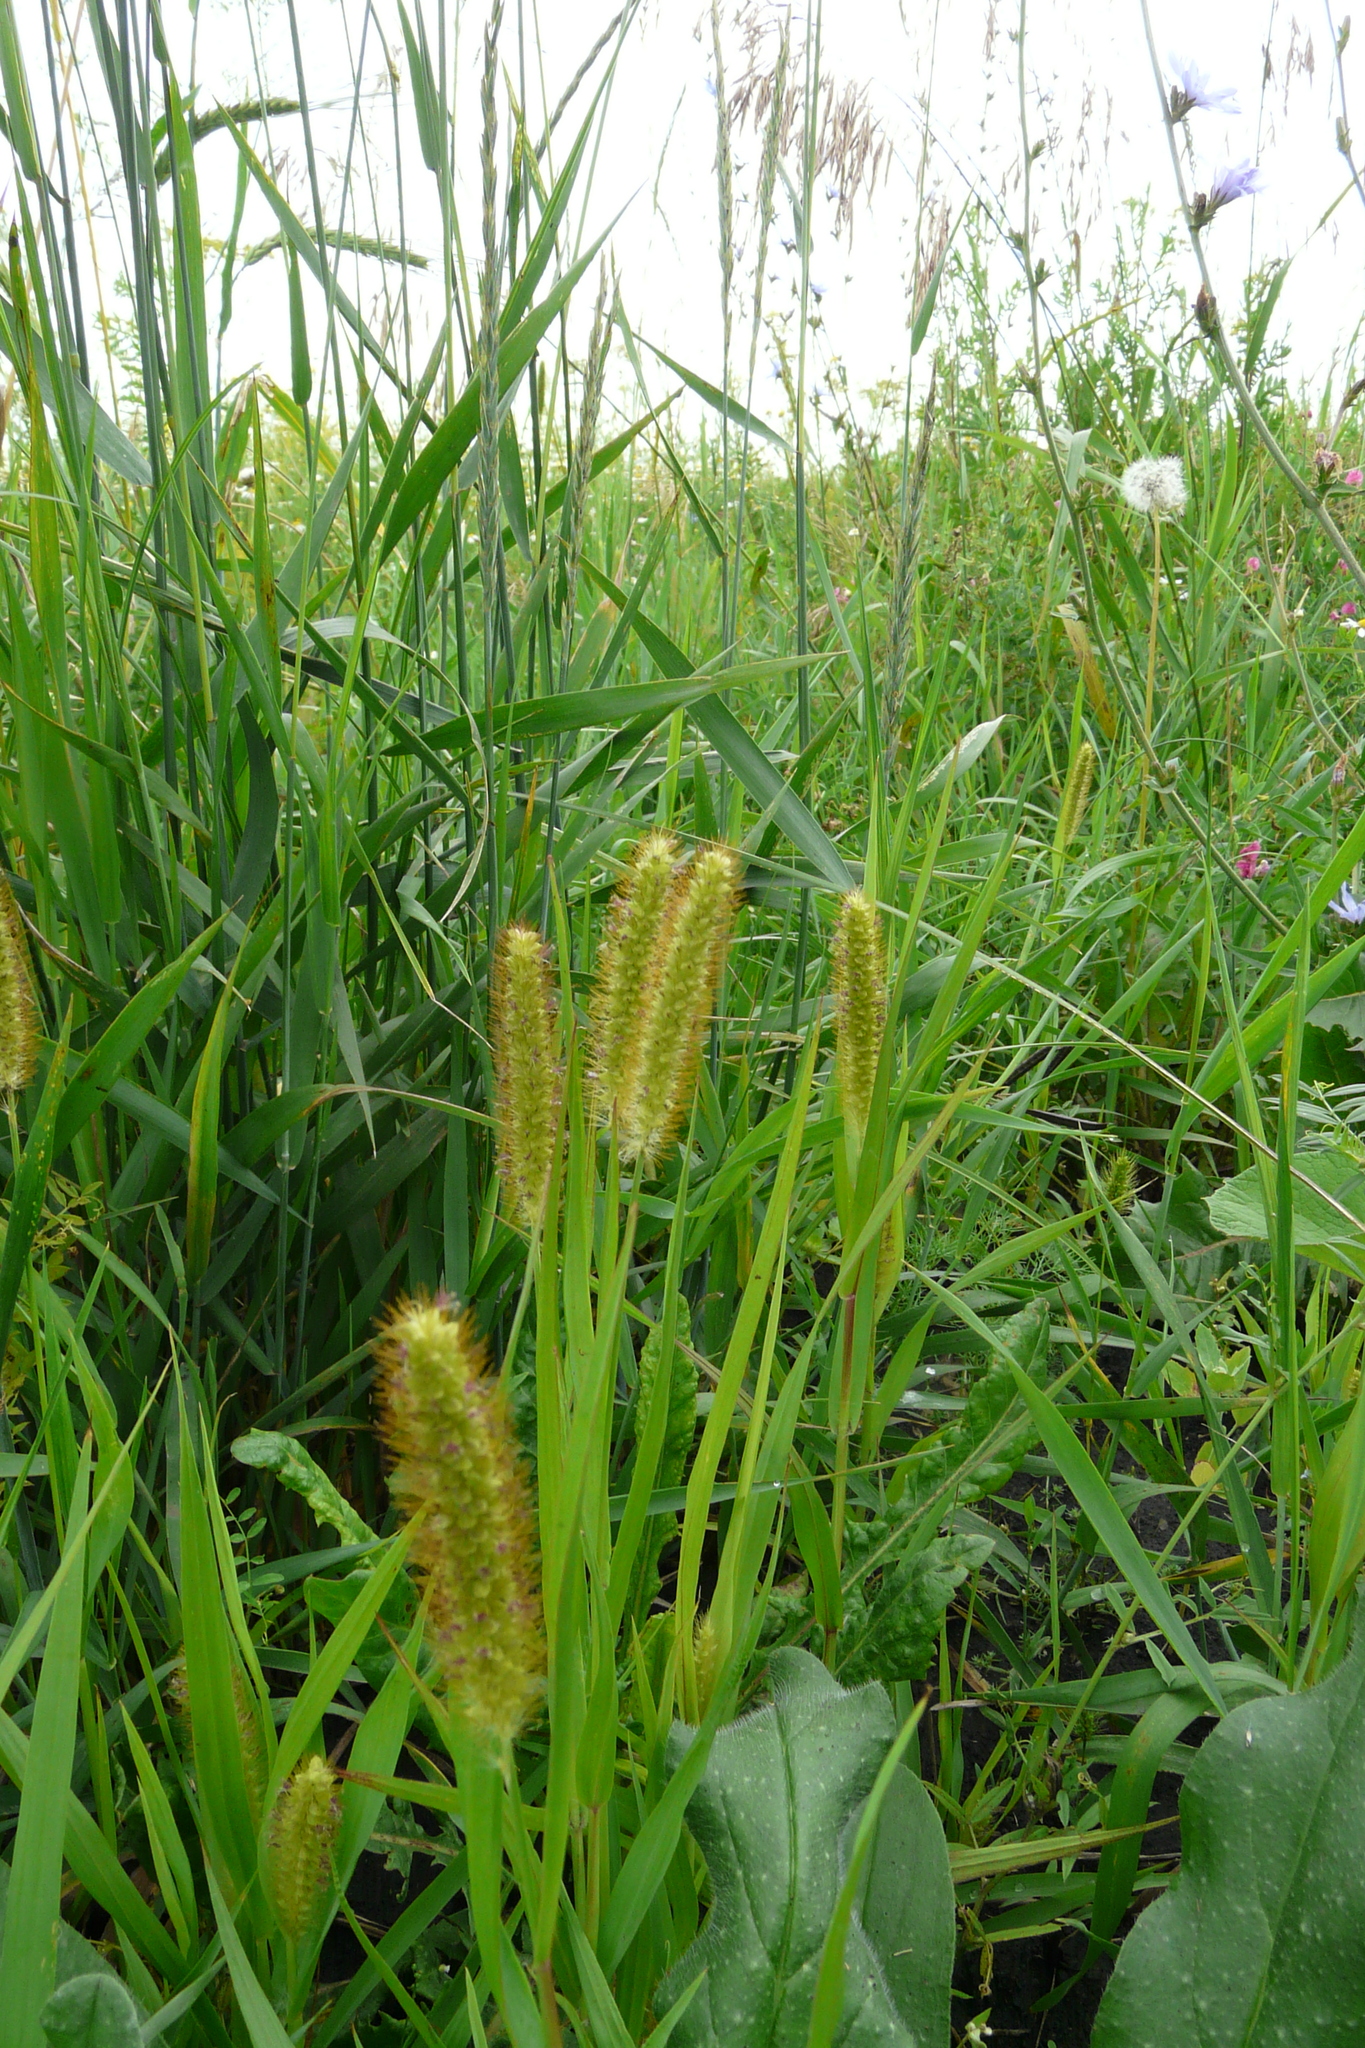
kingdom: Plantae
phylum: Tracheophyta
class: Liliopsida
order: Poales
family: Poaceae
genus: Setaria
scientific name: Setaria pumila
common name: Yellow bristle-grass
